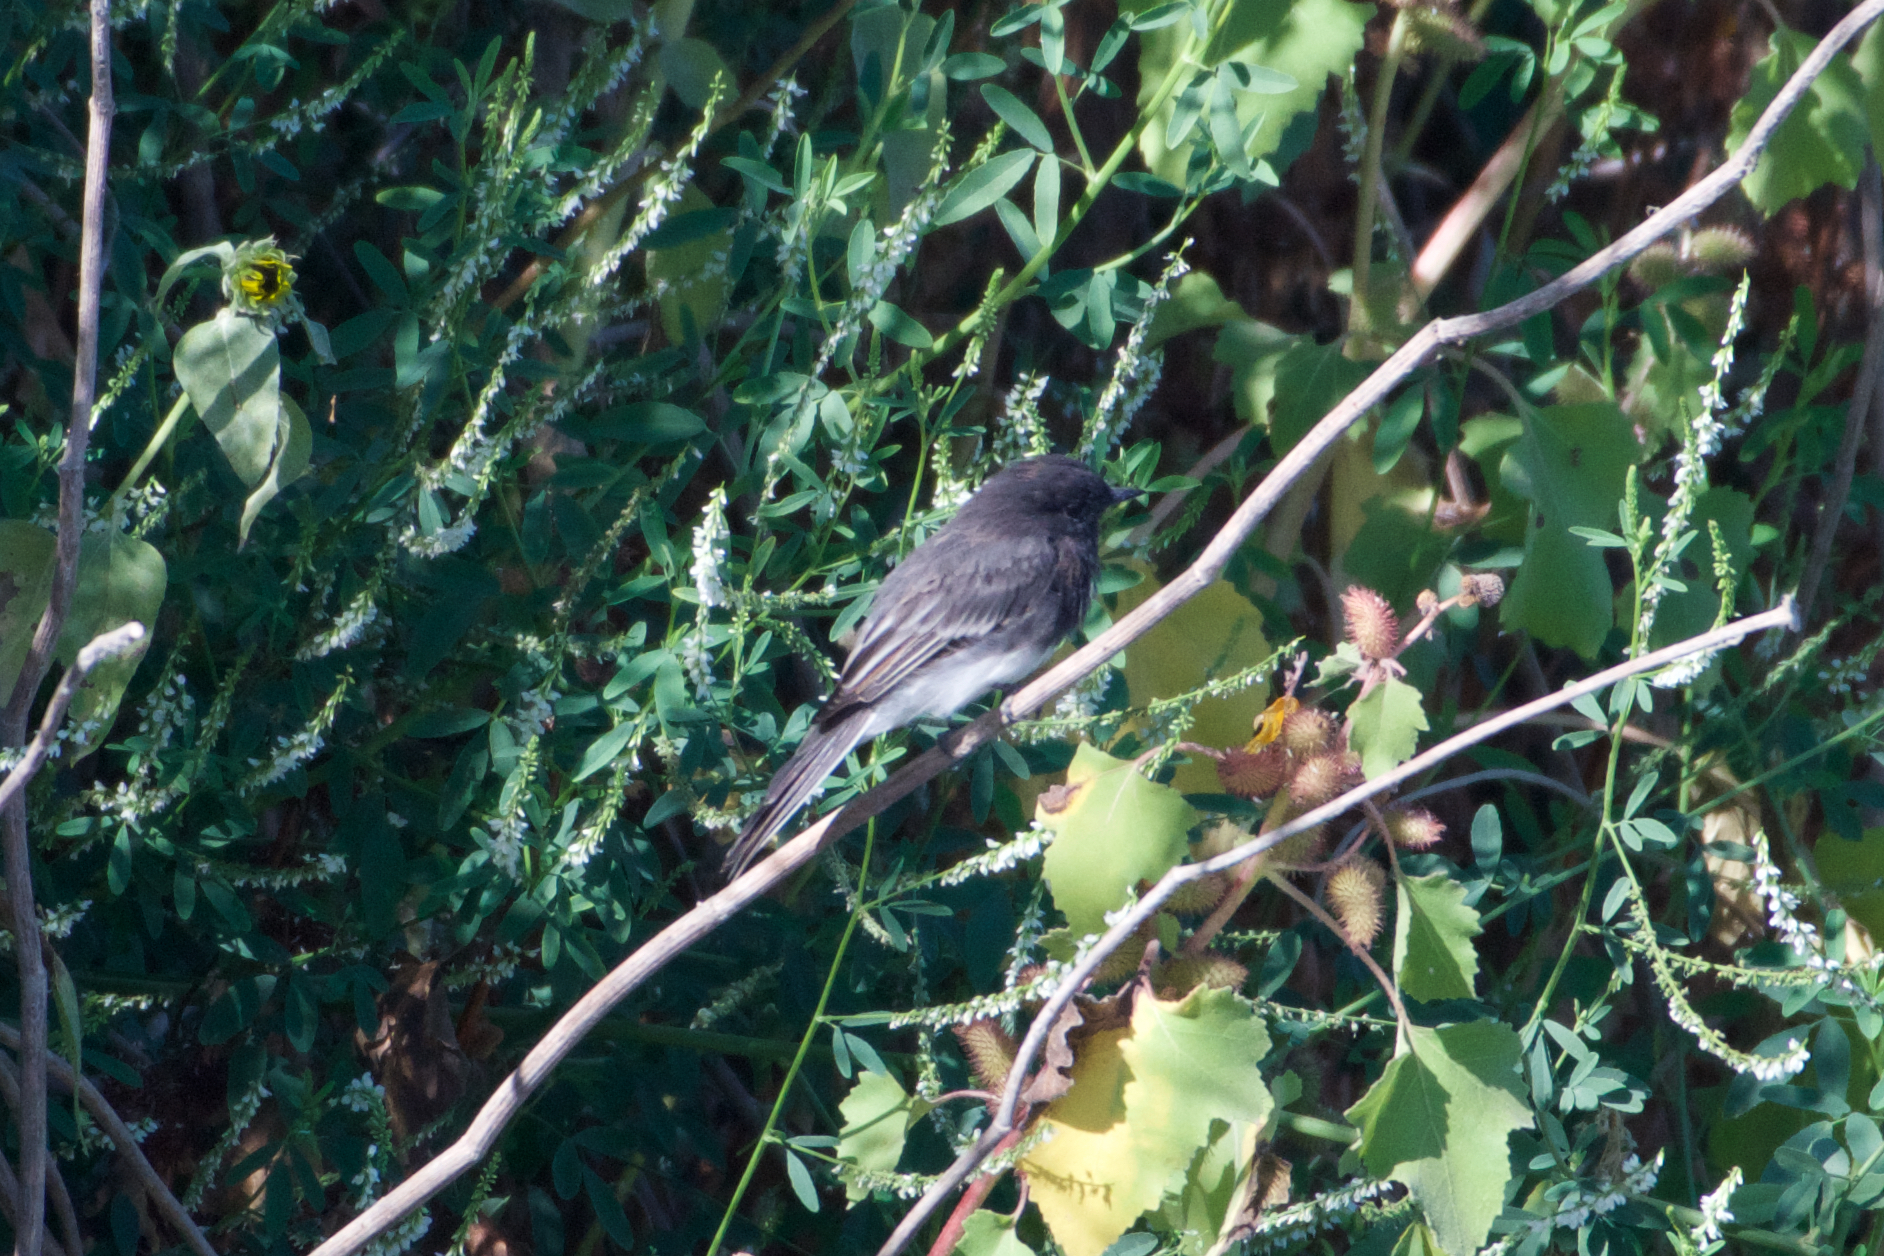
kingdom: Animalia
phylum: Chordata
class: Aves
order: Passeriformes
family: Tyrannidae
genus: Sayornis
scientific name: Sayornis nigricans
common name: Black phoebe
